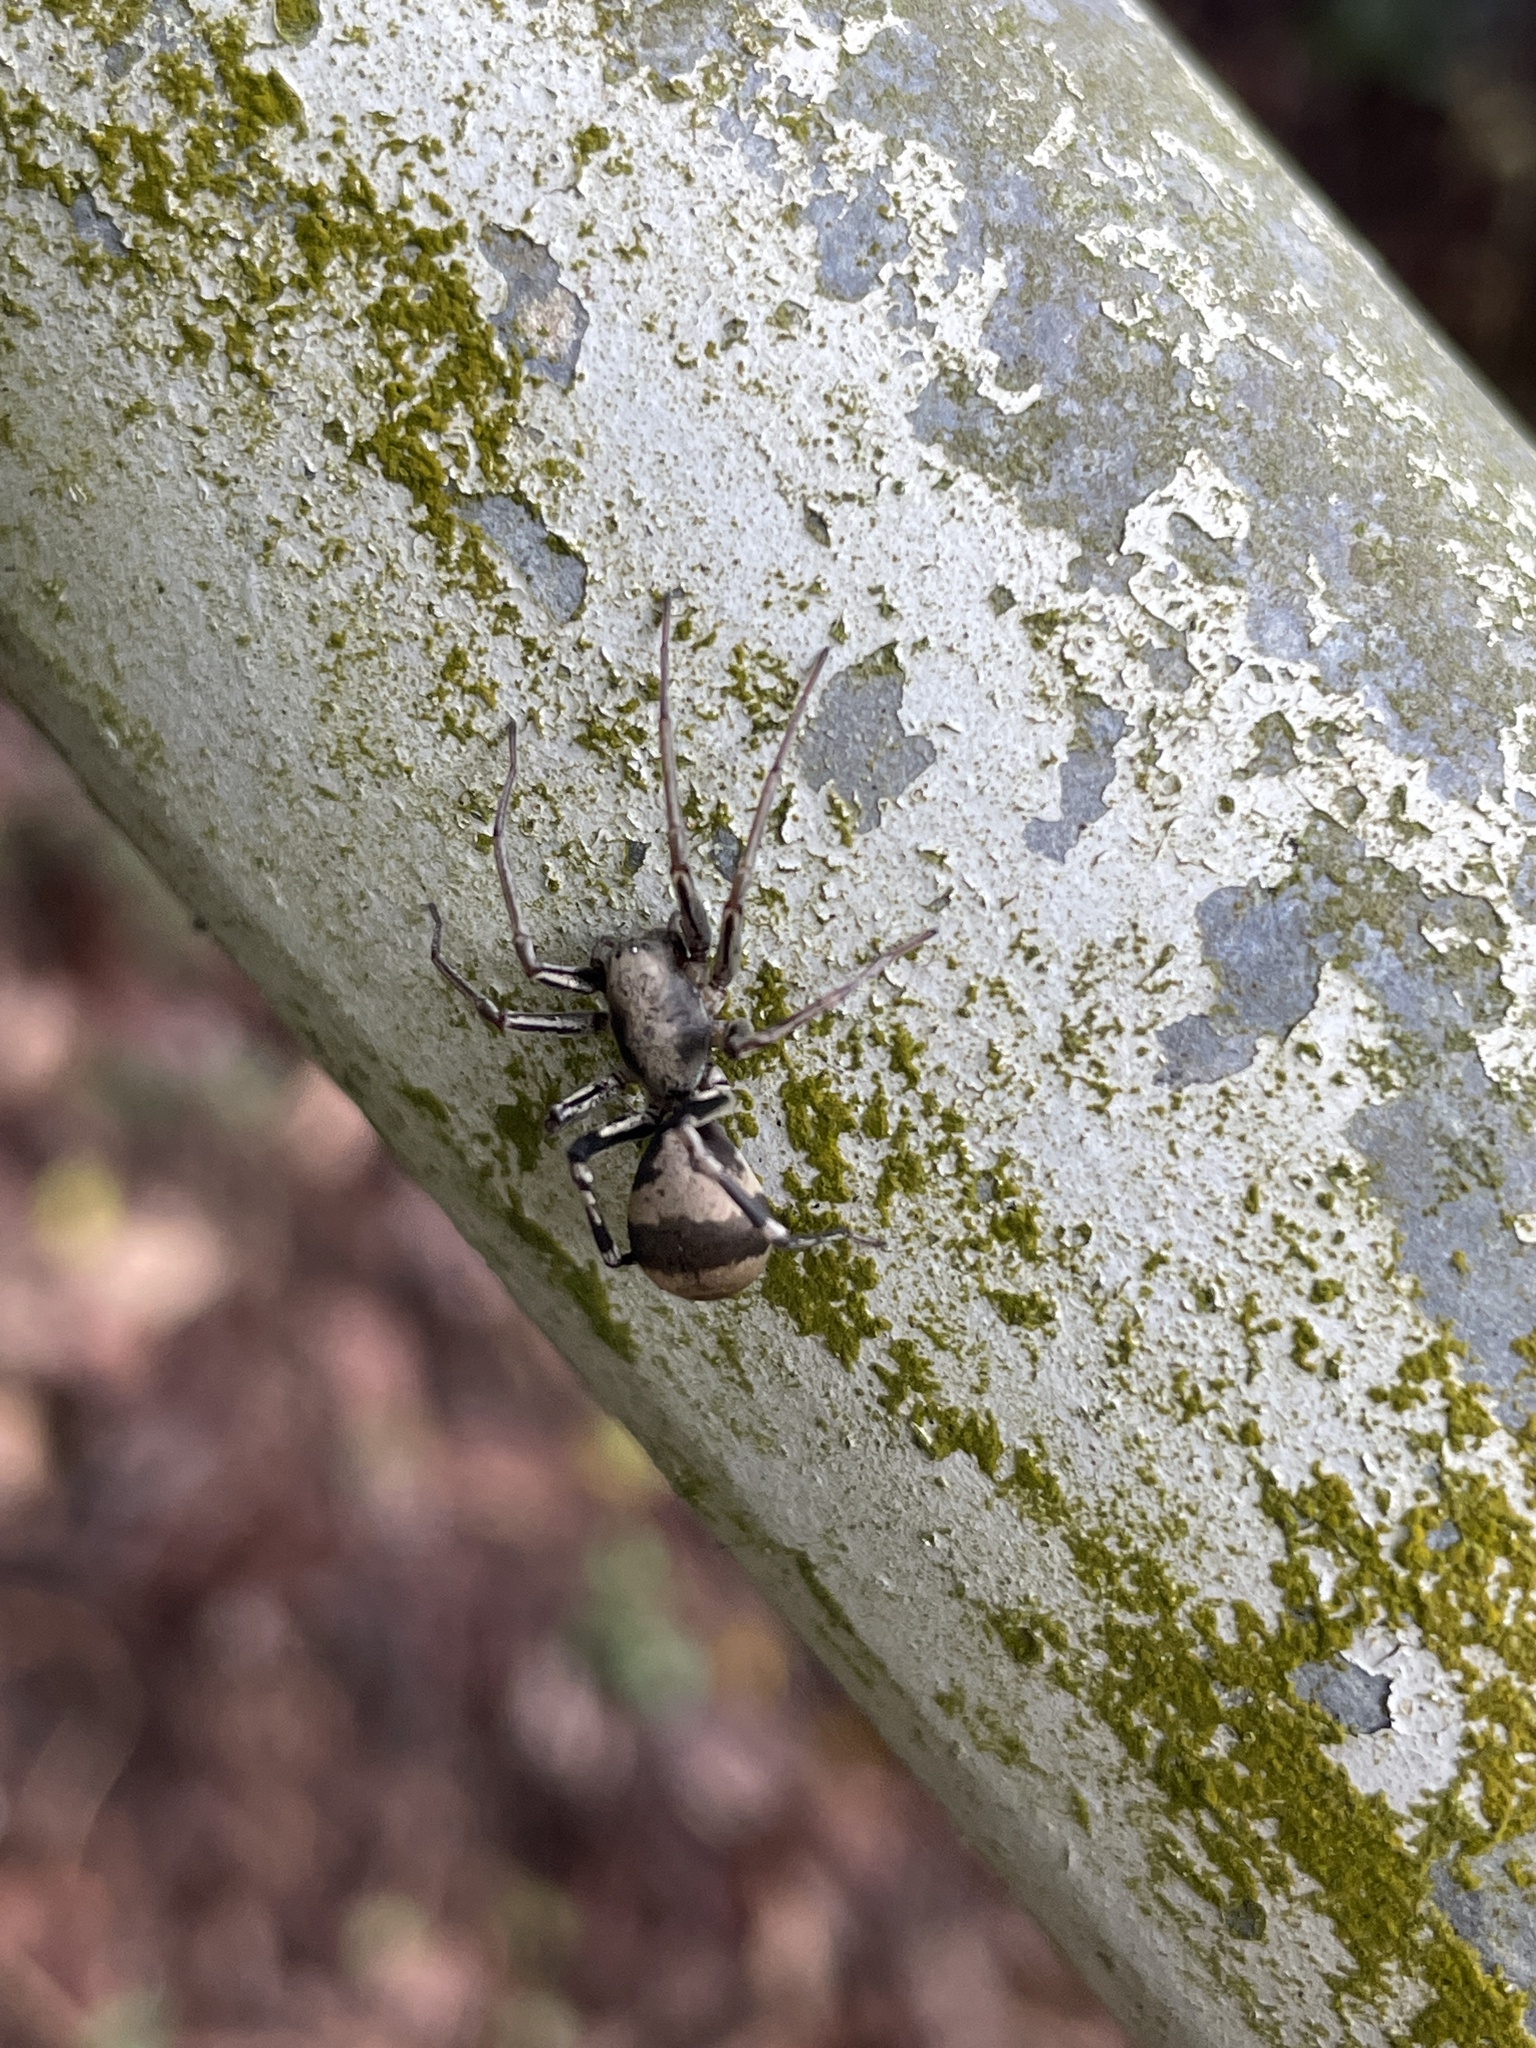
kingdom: Animalia
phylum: Arthropoda
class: Arachnida
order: Araneae
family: Corinnidae
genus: Corinnomma
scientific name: Corinnomma severum
